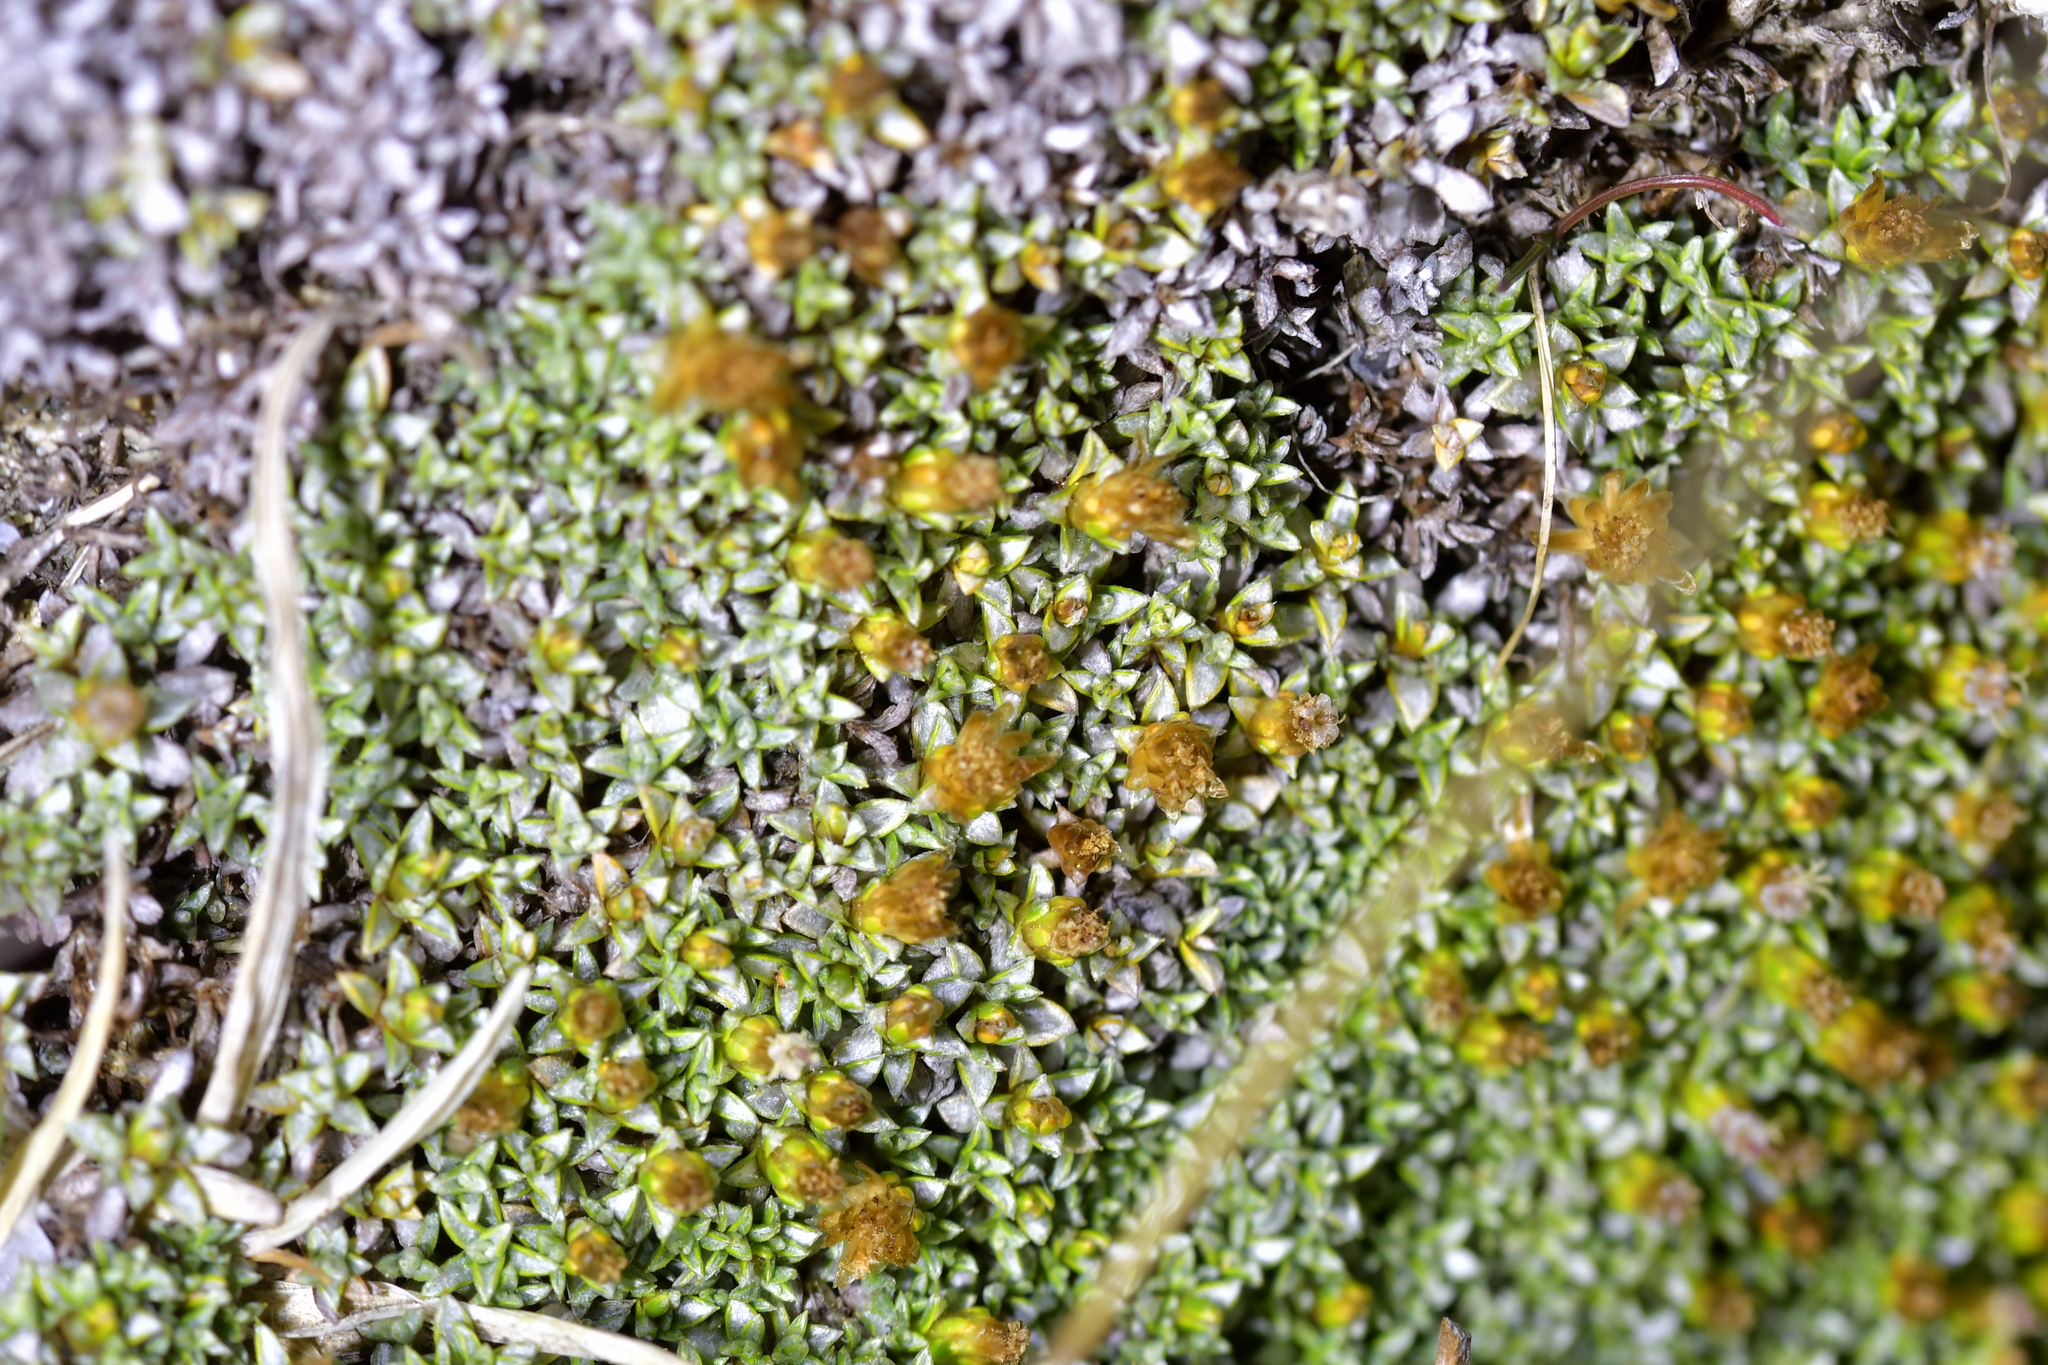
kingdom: Plantae
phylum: Tracheophyta
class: Magnoliopsida
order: Asterales
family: Asteraceae
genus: Raoulia
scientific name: Raoulia tenuicaulis
